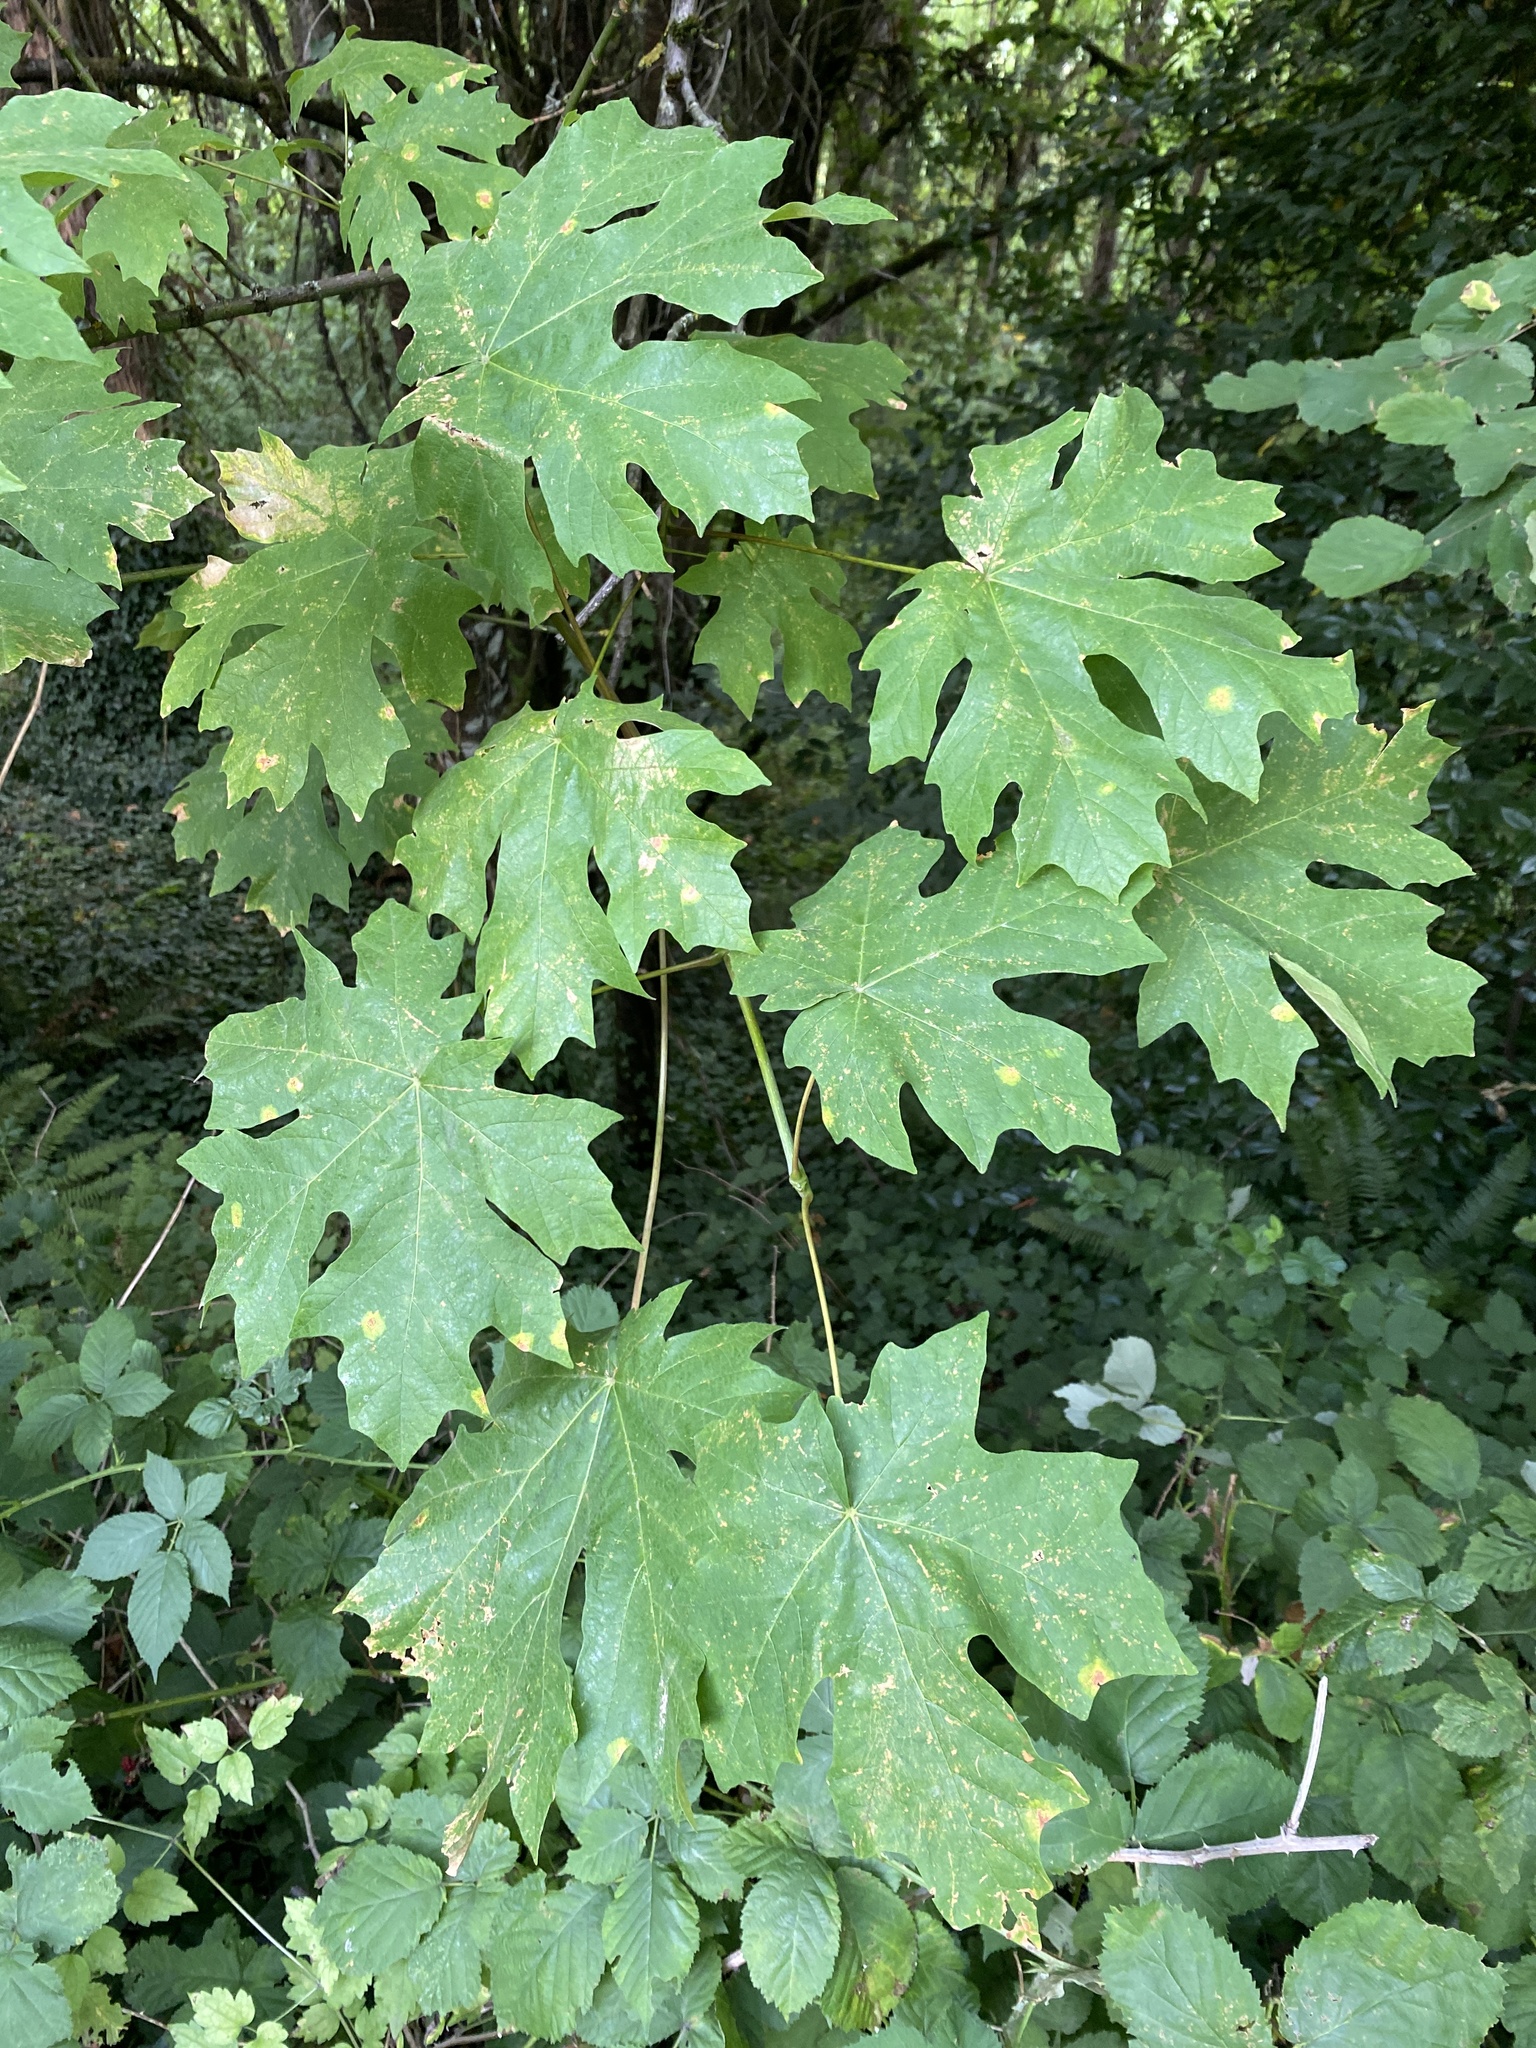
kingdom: Plantae
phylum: Tracheophyta
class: Magnoliopsida
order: Sapindales
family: Sapindaceae
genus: Acer
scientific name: Acer macrophyllum
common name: Oregon maple
